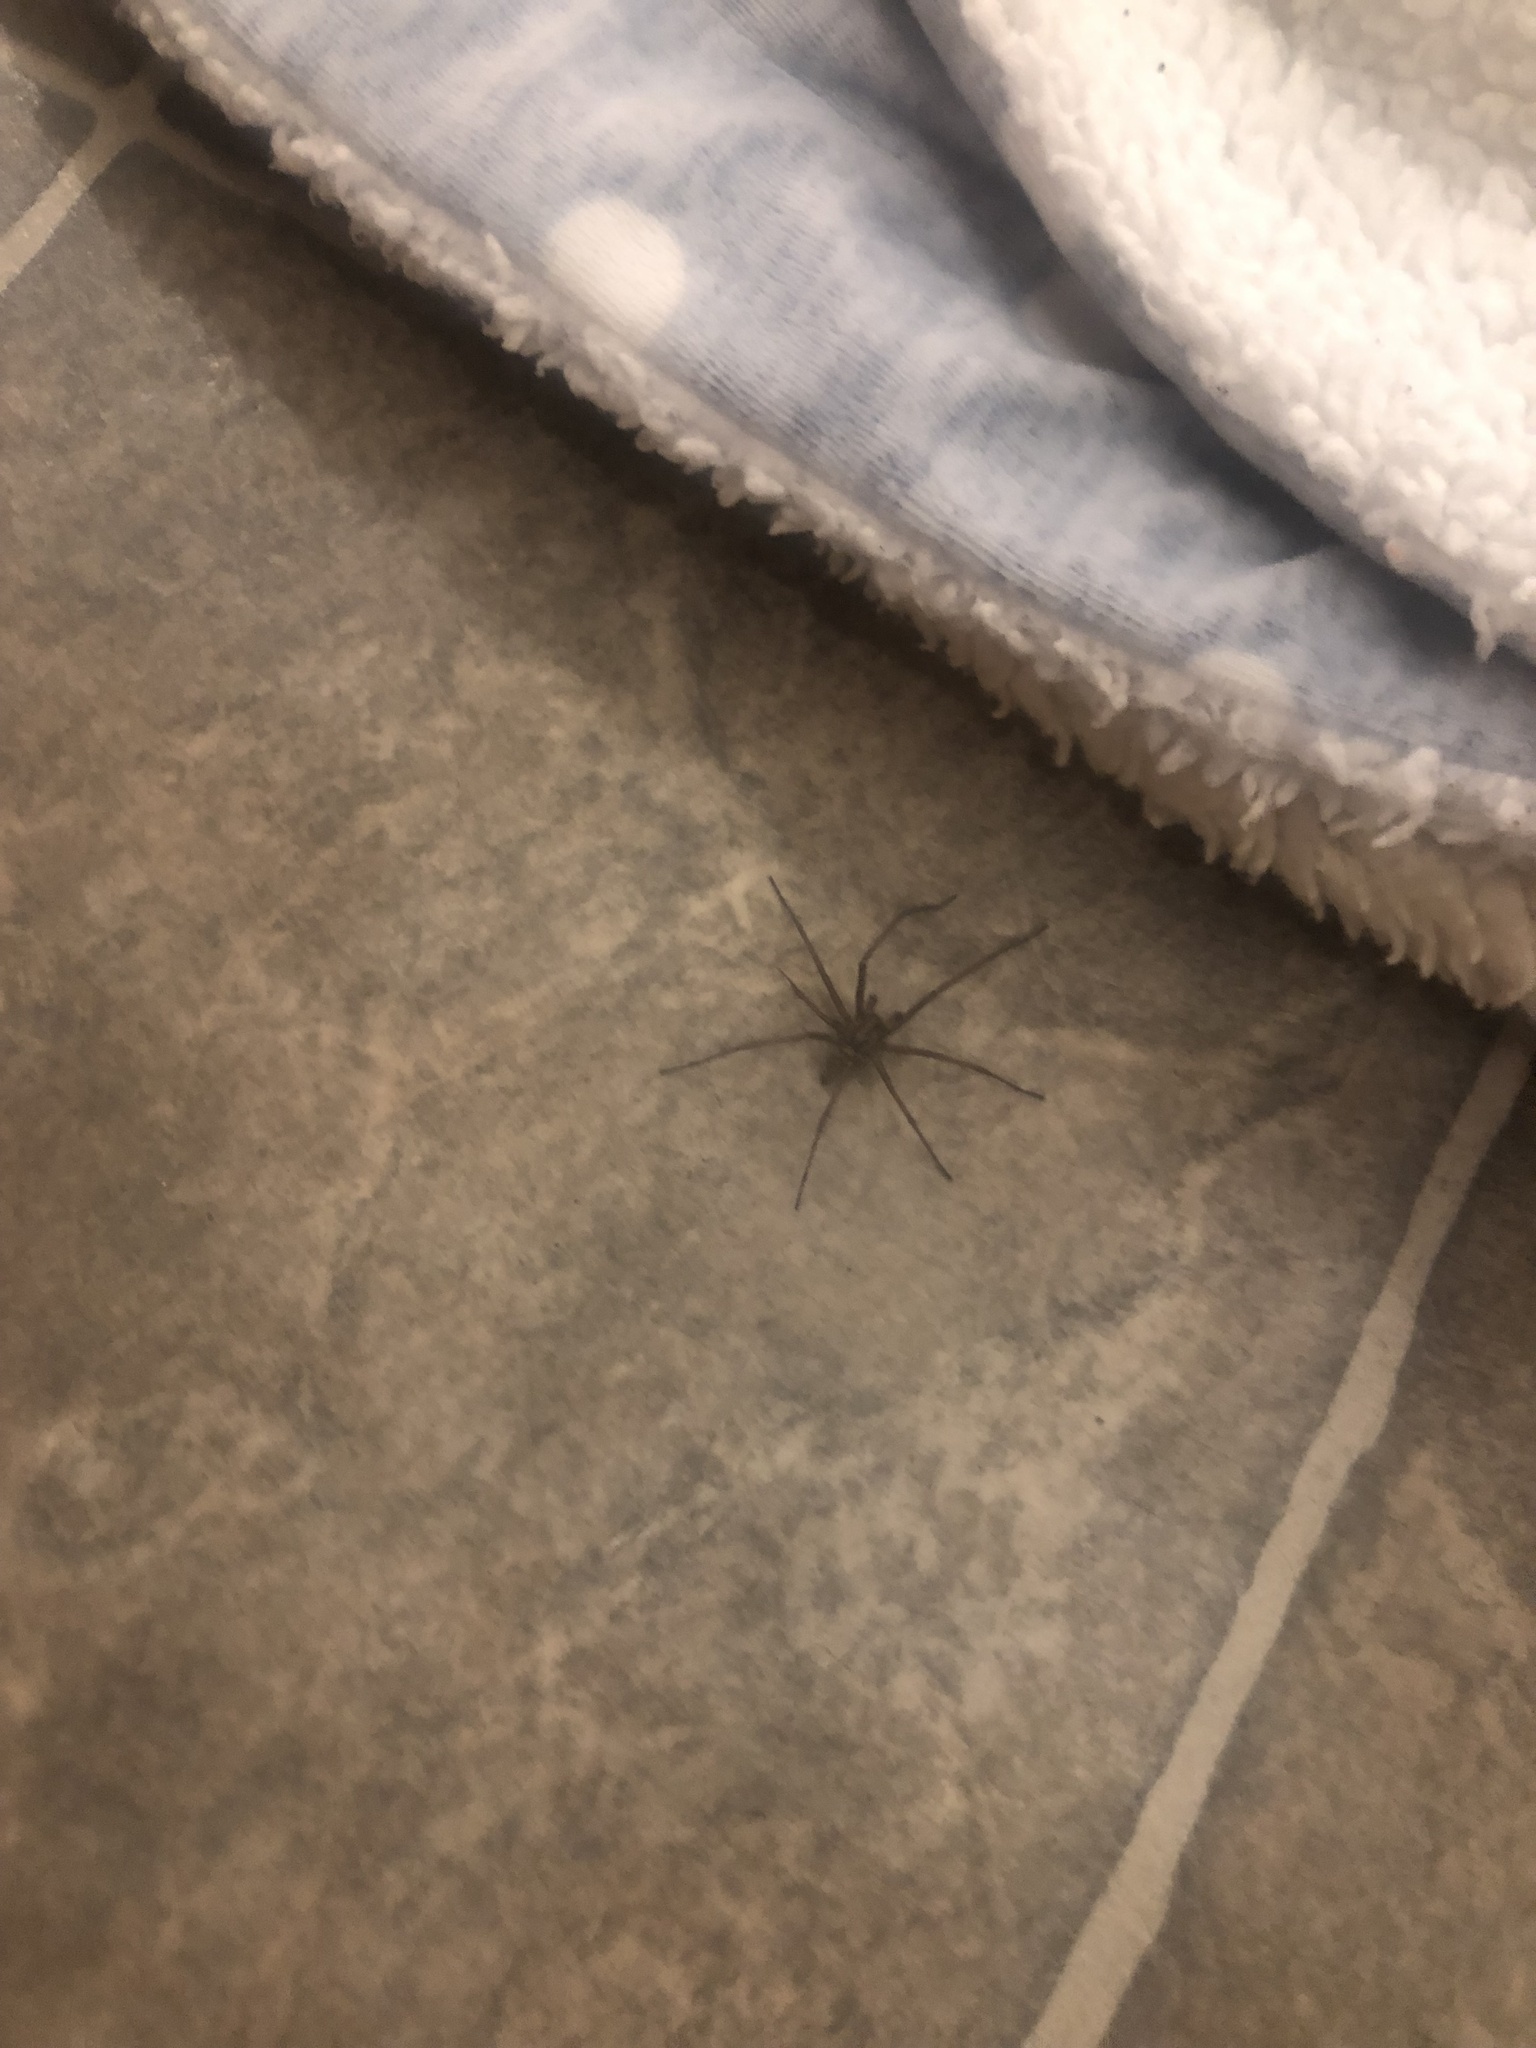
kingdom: Animalia
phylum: Arthropoda
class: Arachnida
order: Araneae
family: Agelenidae
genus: Eratigena
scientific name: Eratigena duellica
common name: Giant house spider
